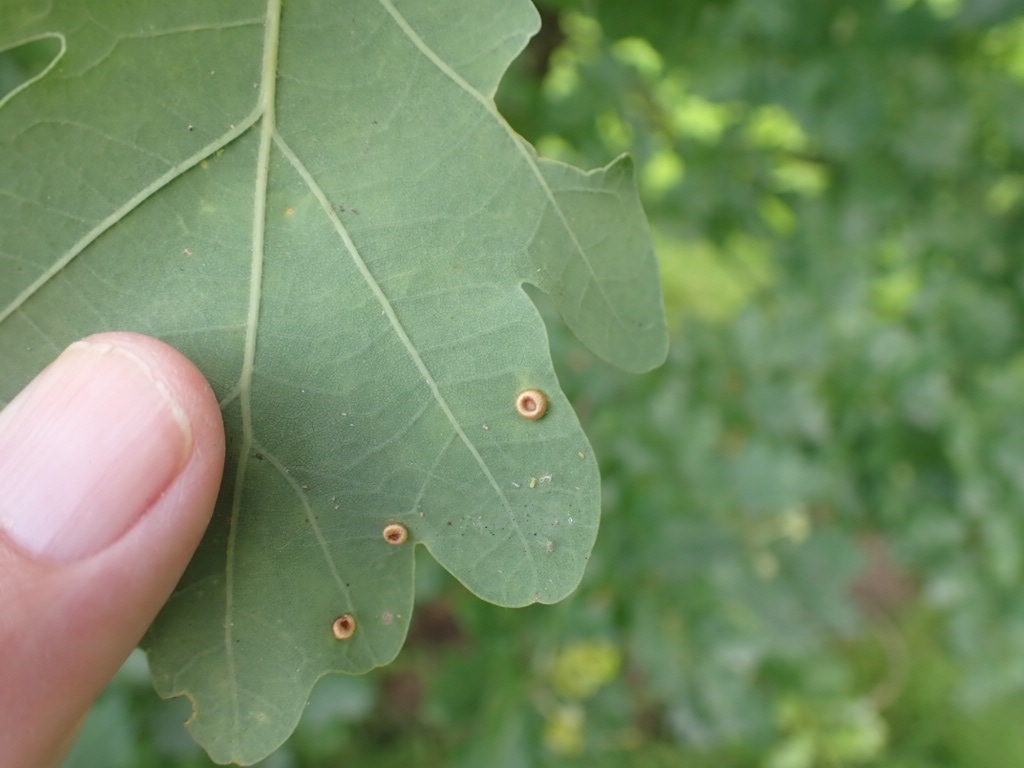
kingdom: Animalia
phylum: Arthropoda
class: Insecta
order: Hymenoptera
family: Cynipidae
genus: Neuroterus
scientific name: Neuroterus numismalis
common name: Silk-button spangle gall
